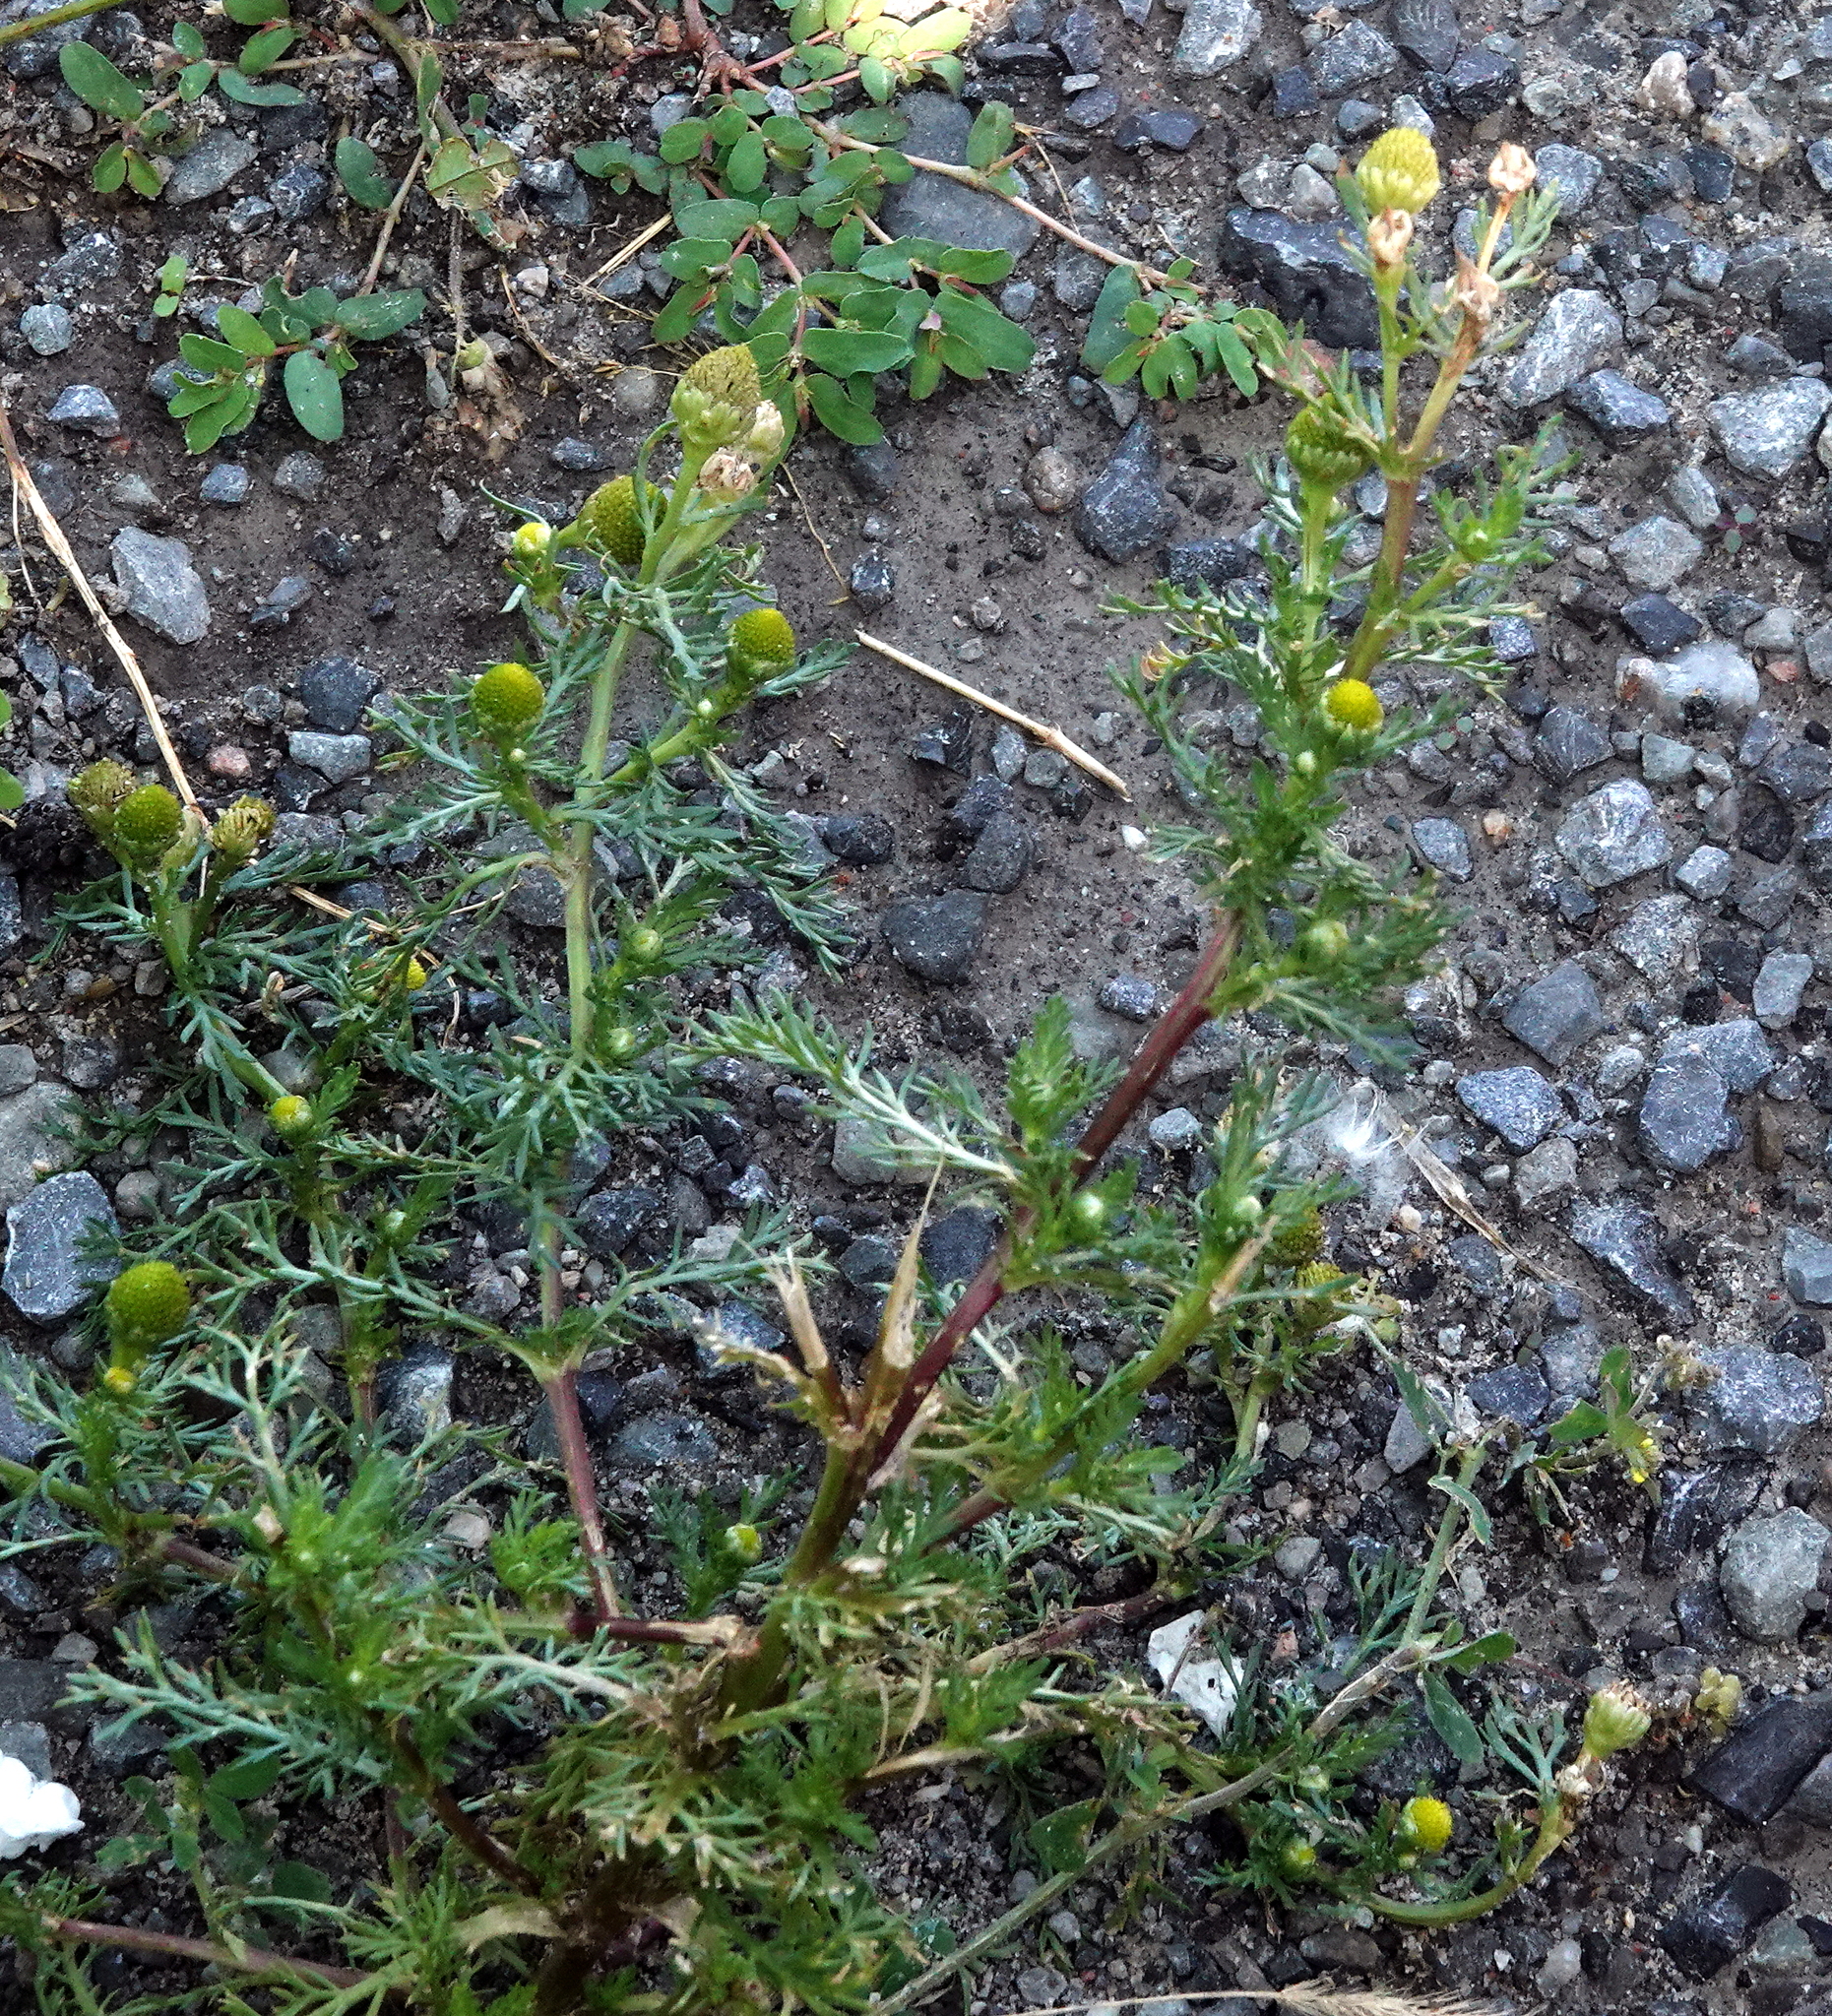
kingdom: Plantae
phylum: Tracheophyta
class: Magnoliopsida
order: Asterales
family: Asteraceae
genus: Matricaria
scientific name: Matricaria discoidea
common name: Disc mayweed
